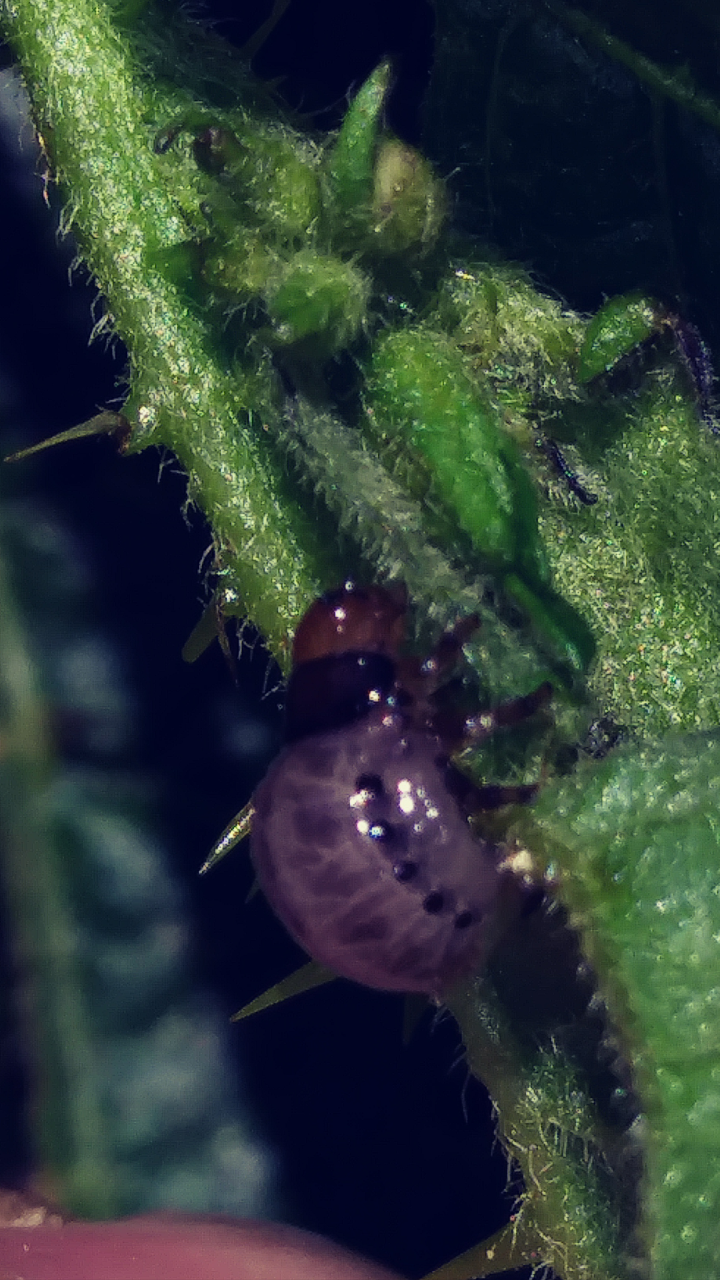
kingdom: Animalia
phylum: Arthropoda
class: Insecta
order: Coleoptera
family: Chrysomelidae
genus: Leptinotarsa
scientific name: Leptinotarsa juncta
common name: False potato beetle
